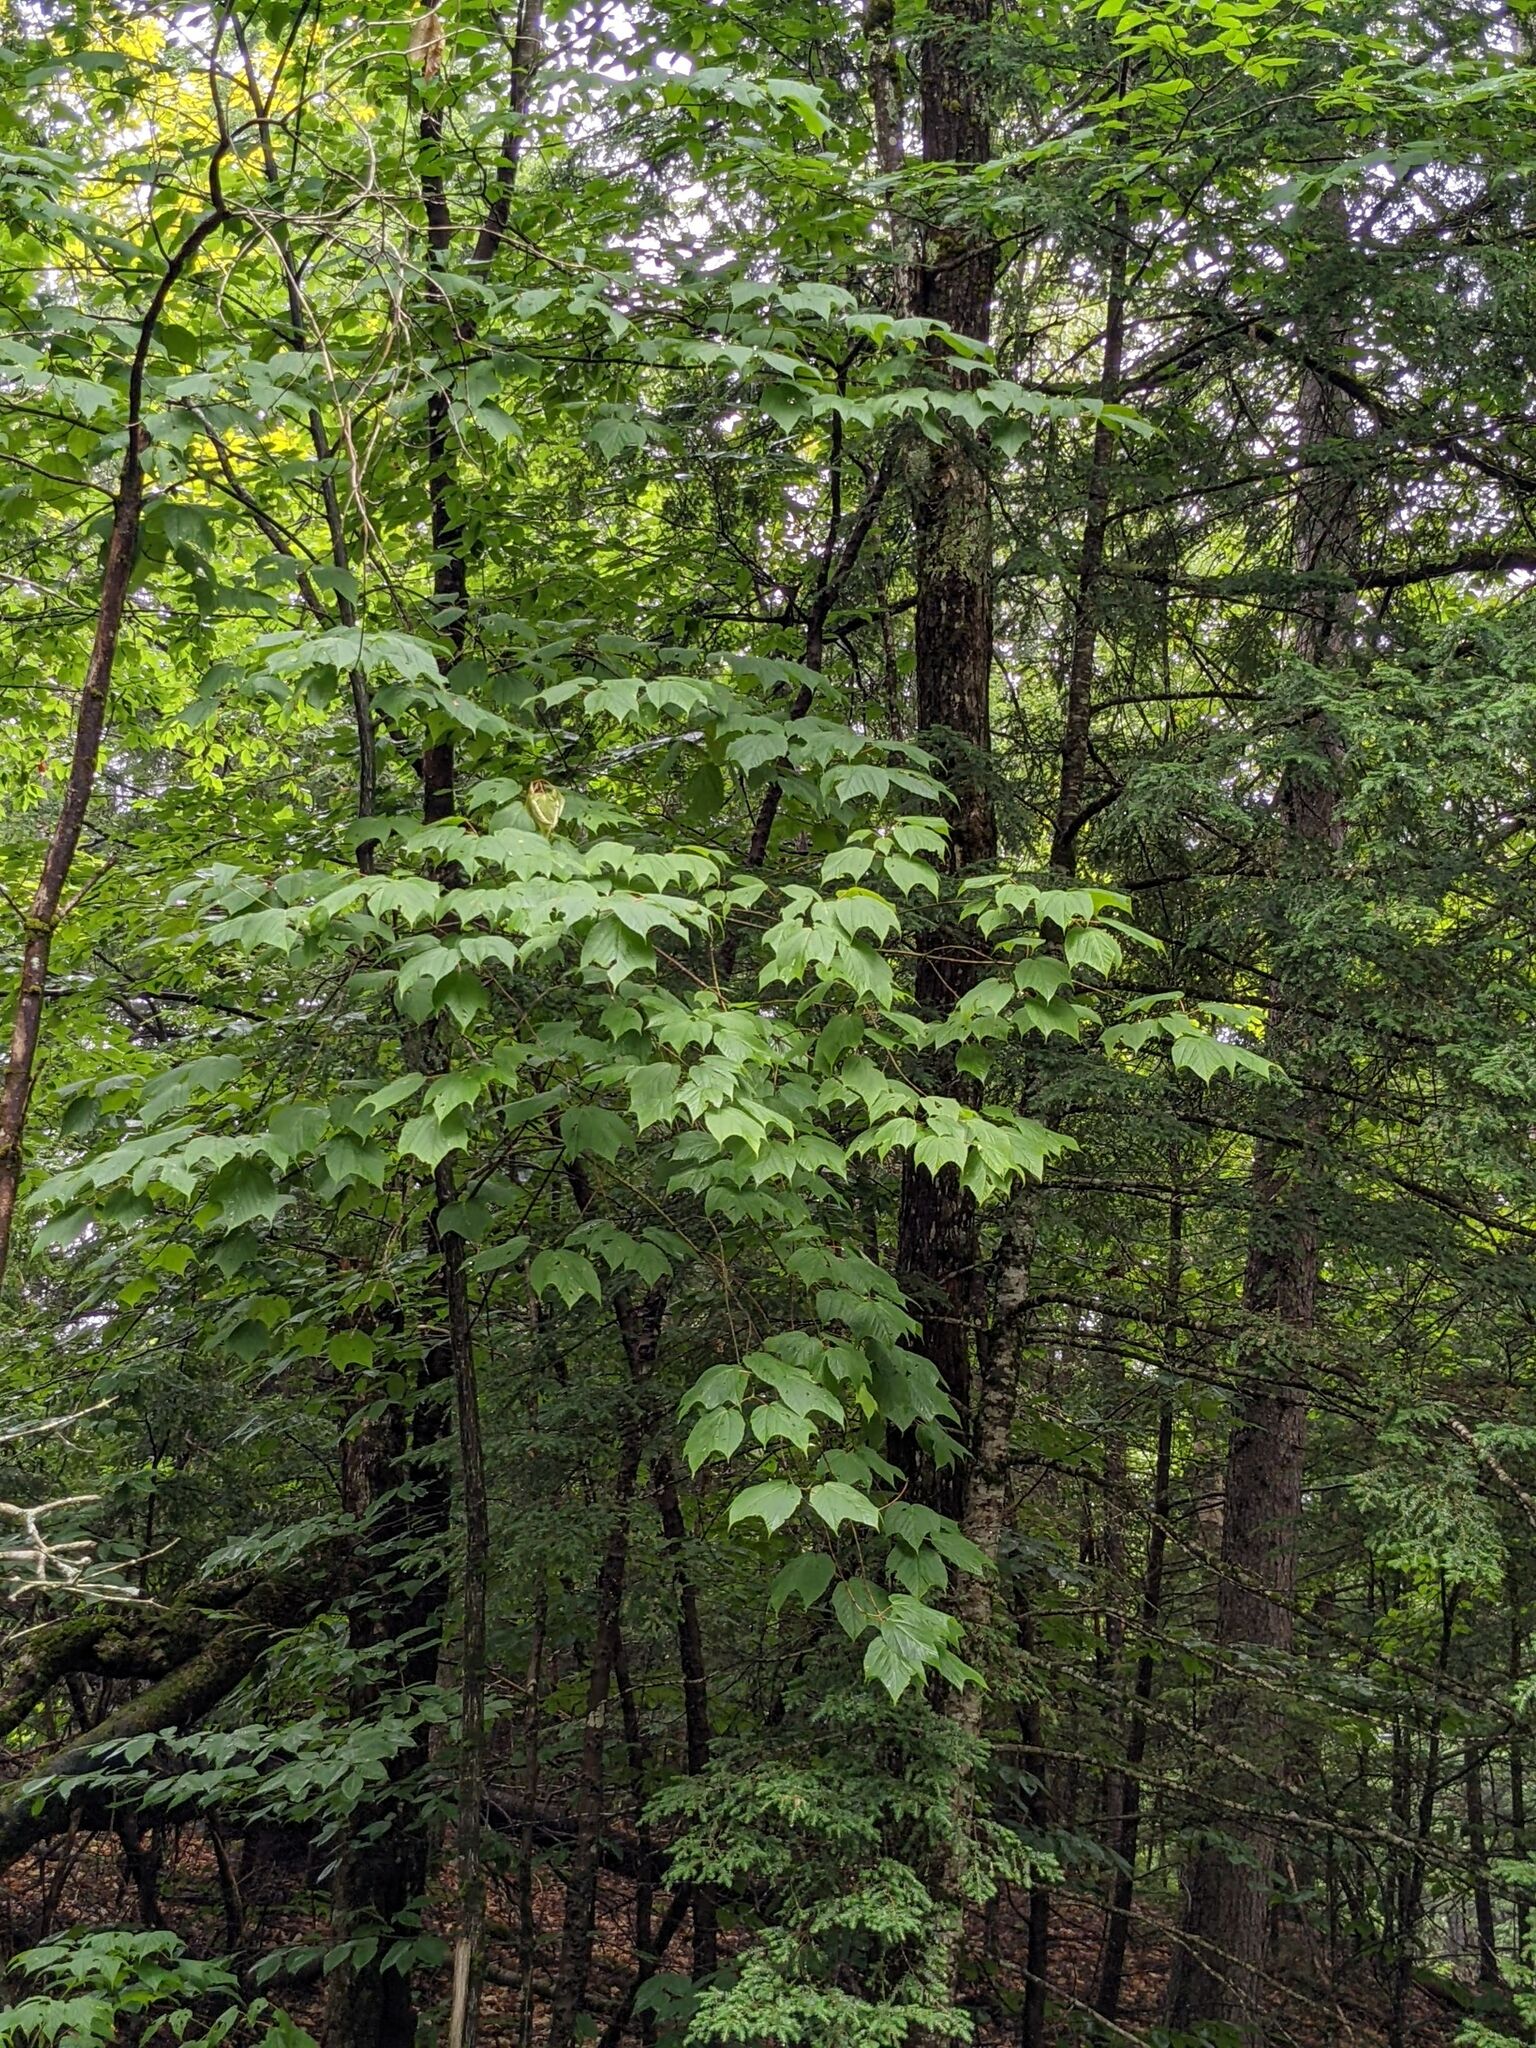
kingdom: Plantae
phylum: Tracheophyta
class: Magnoliopsida
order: Sapindales
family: Sapindaceae
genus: Acer
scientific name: Acer pensylvanicum
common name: Moosewood
